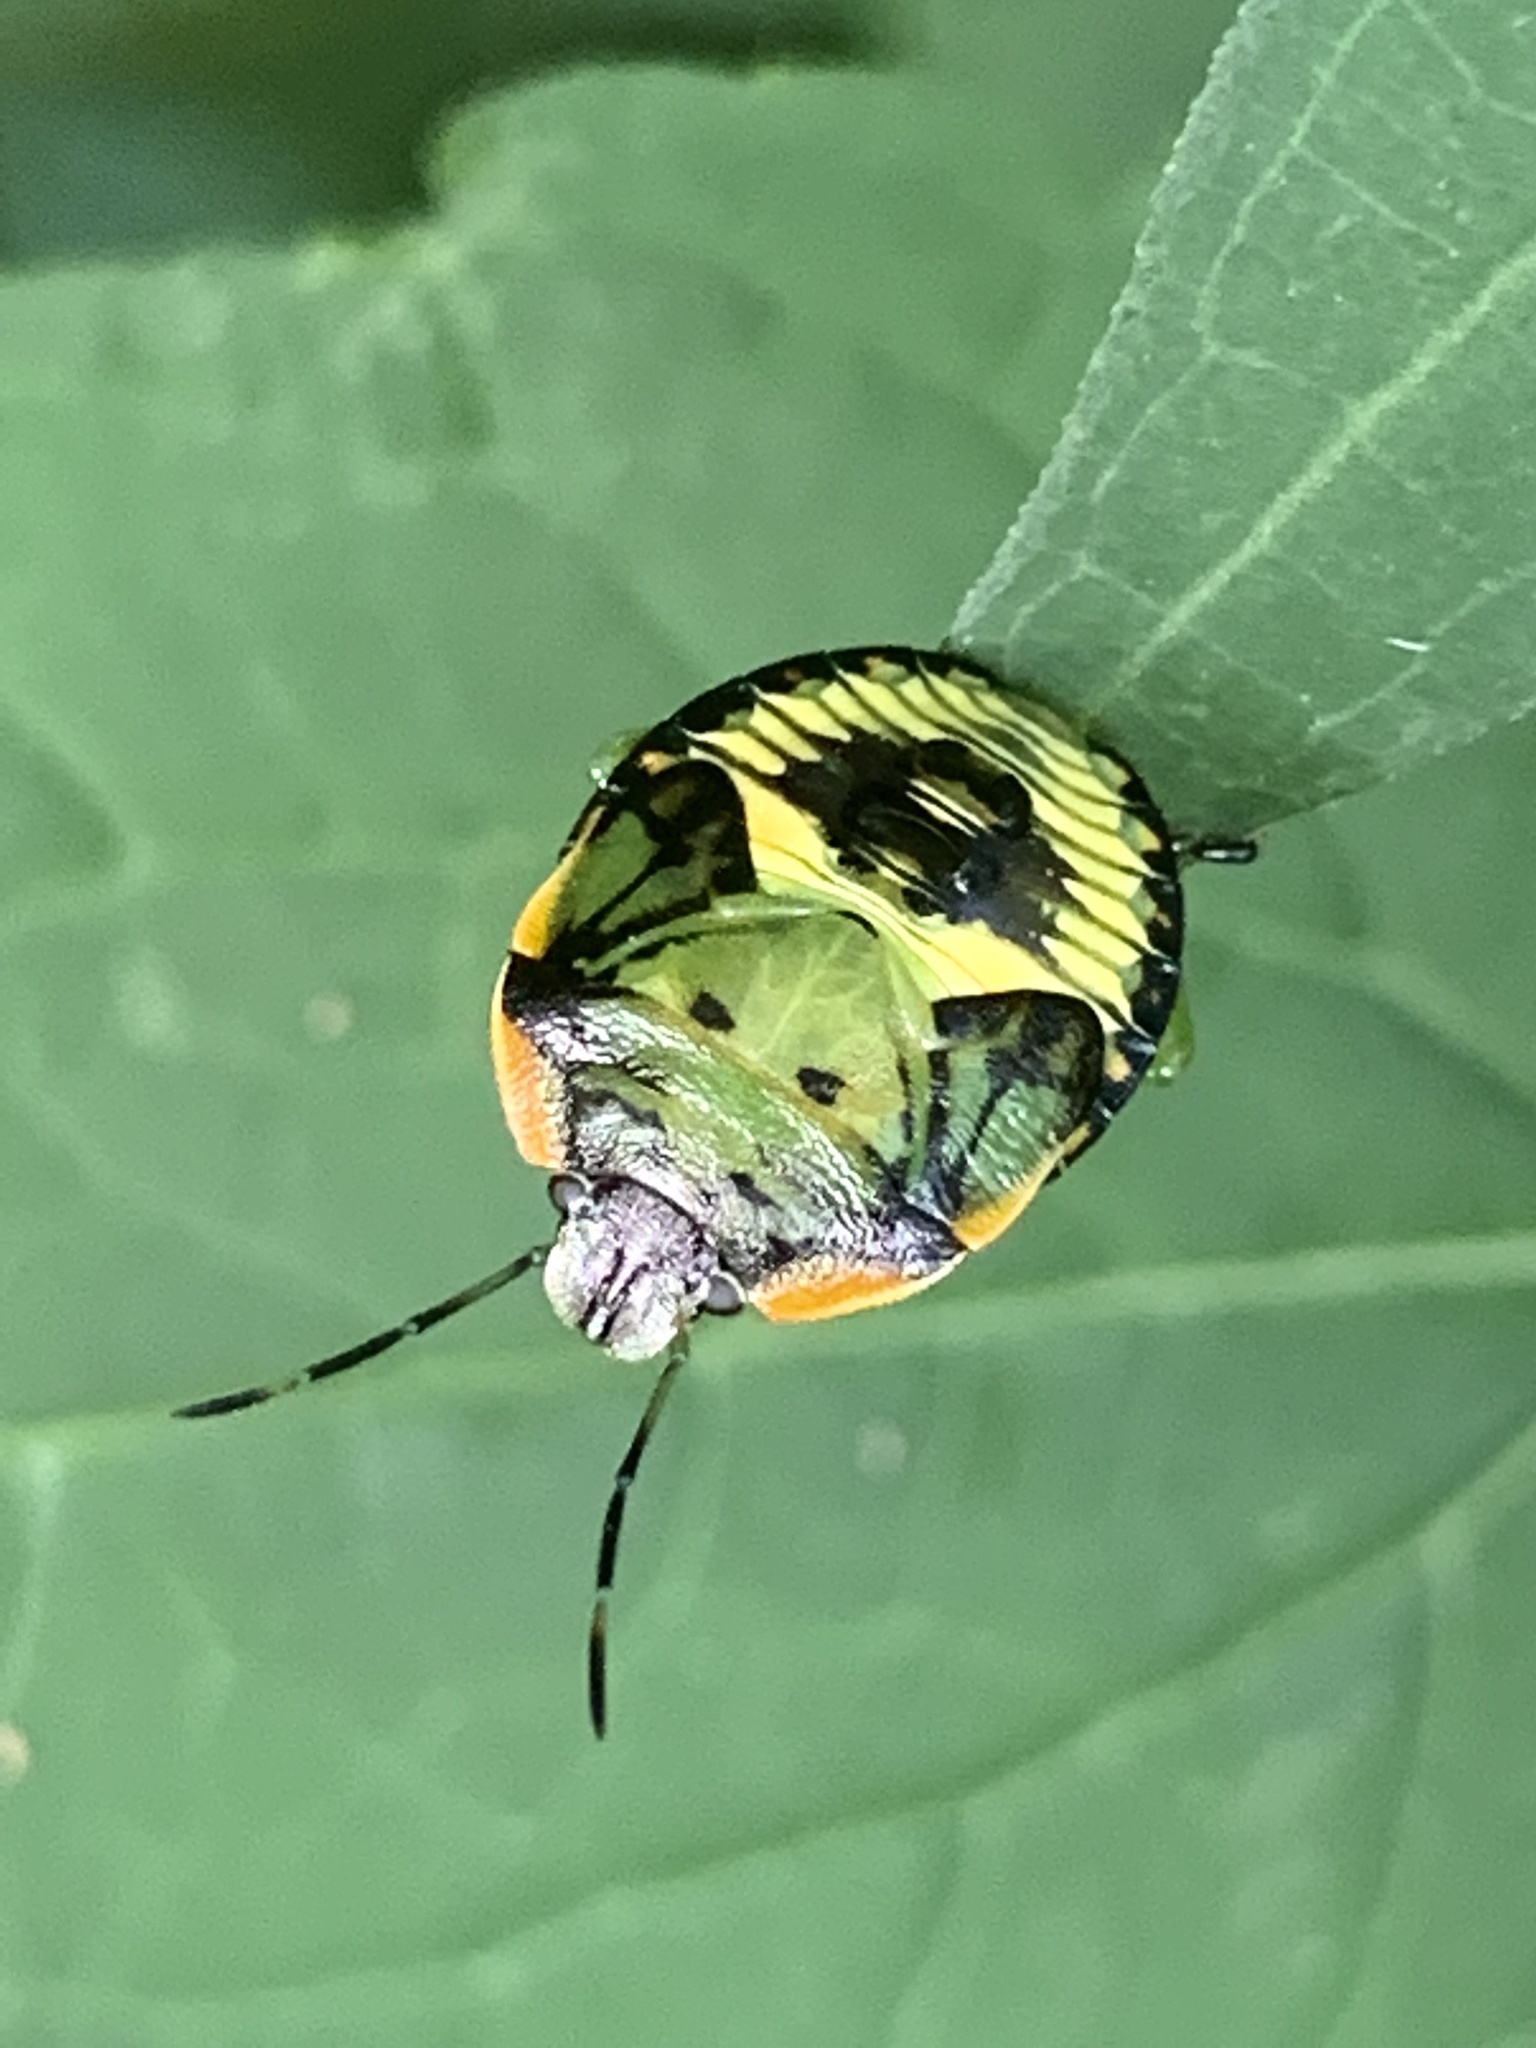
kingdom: Animalia
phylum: Arthropoda
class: Insecta
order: Hemiptera
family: Pentatomidae
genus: Chinavia
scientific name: Chinavia hilaris
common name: Green stink bug
